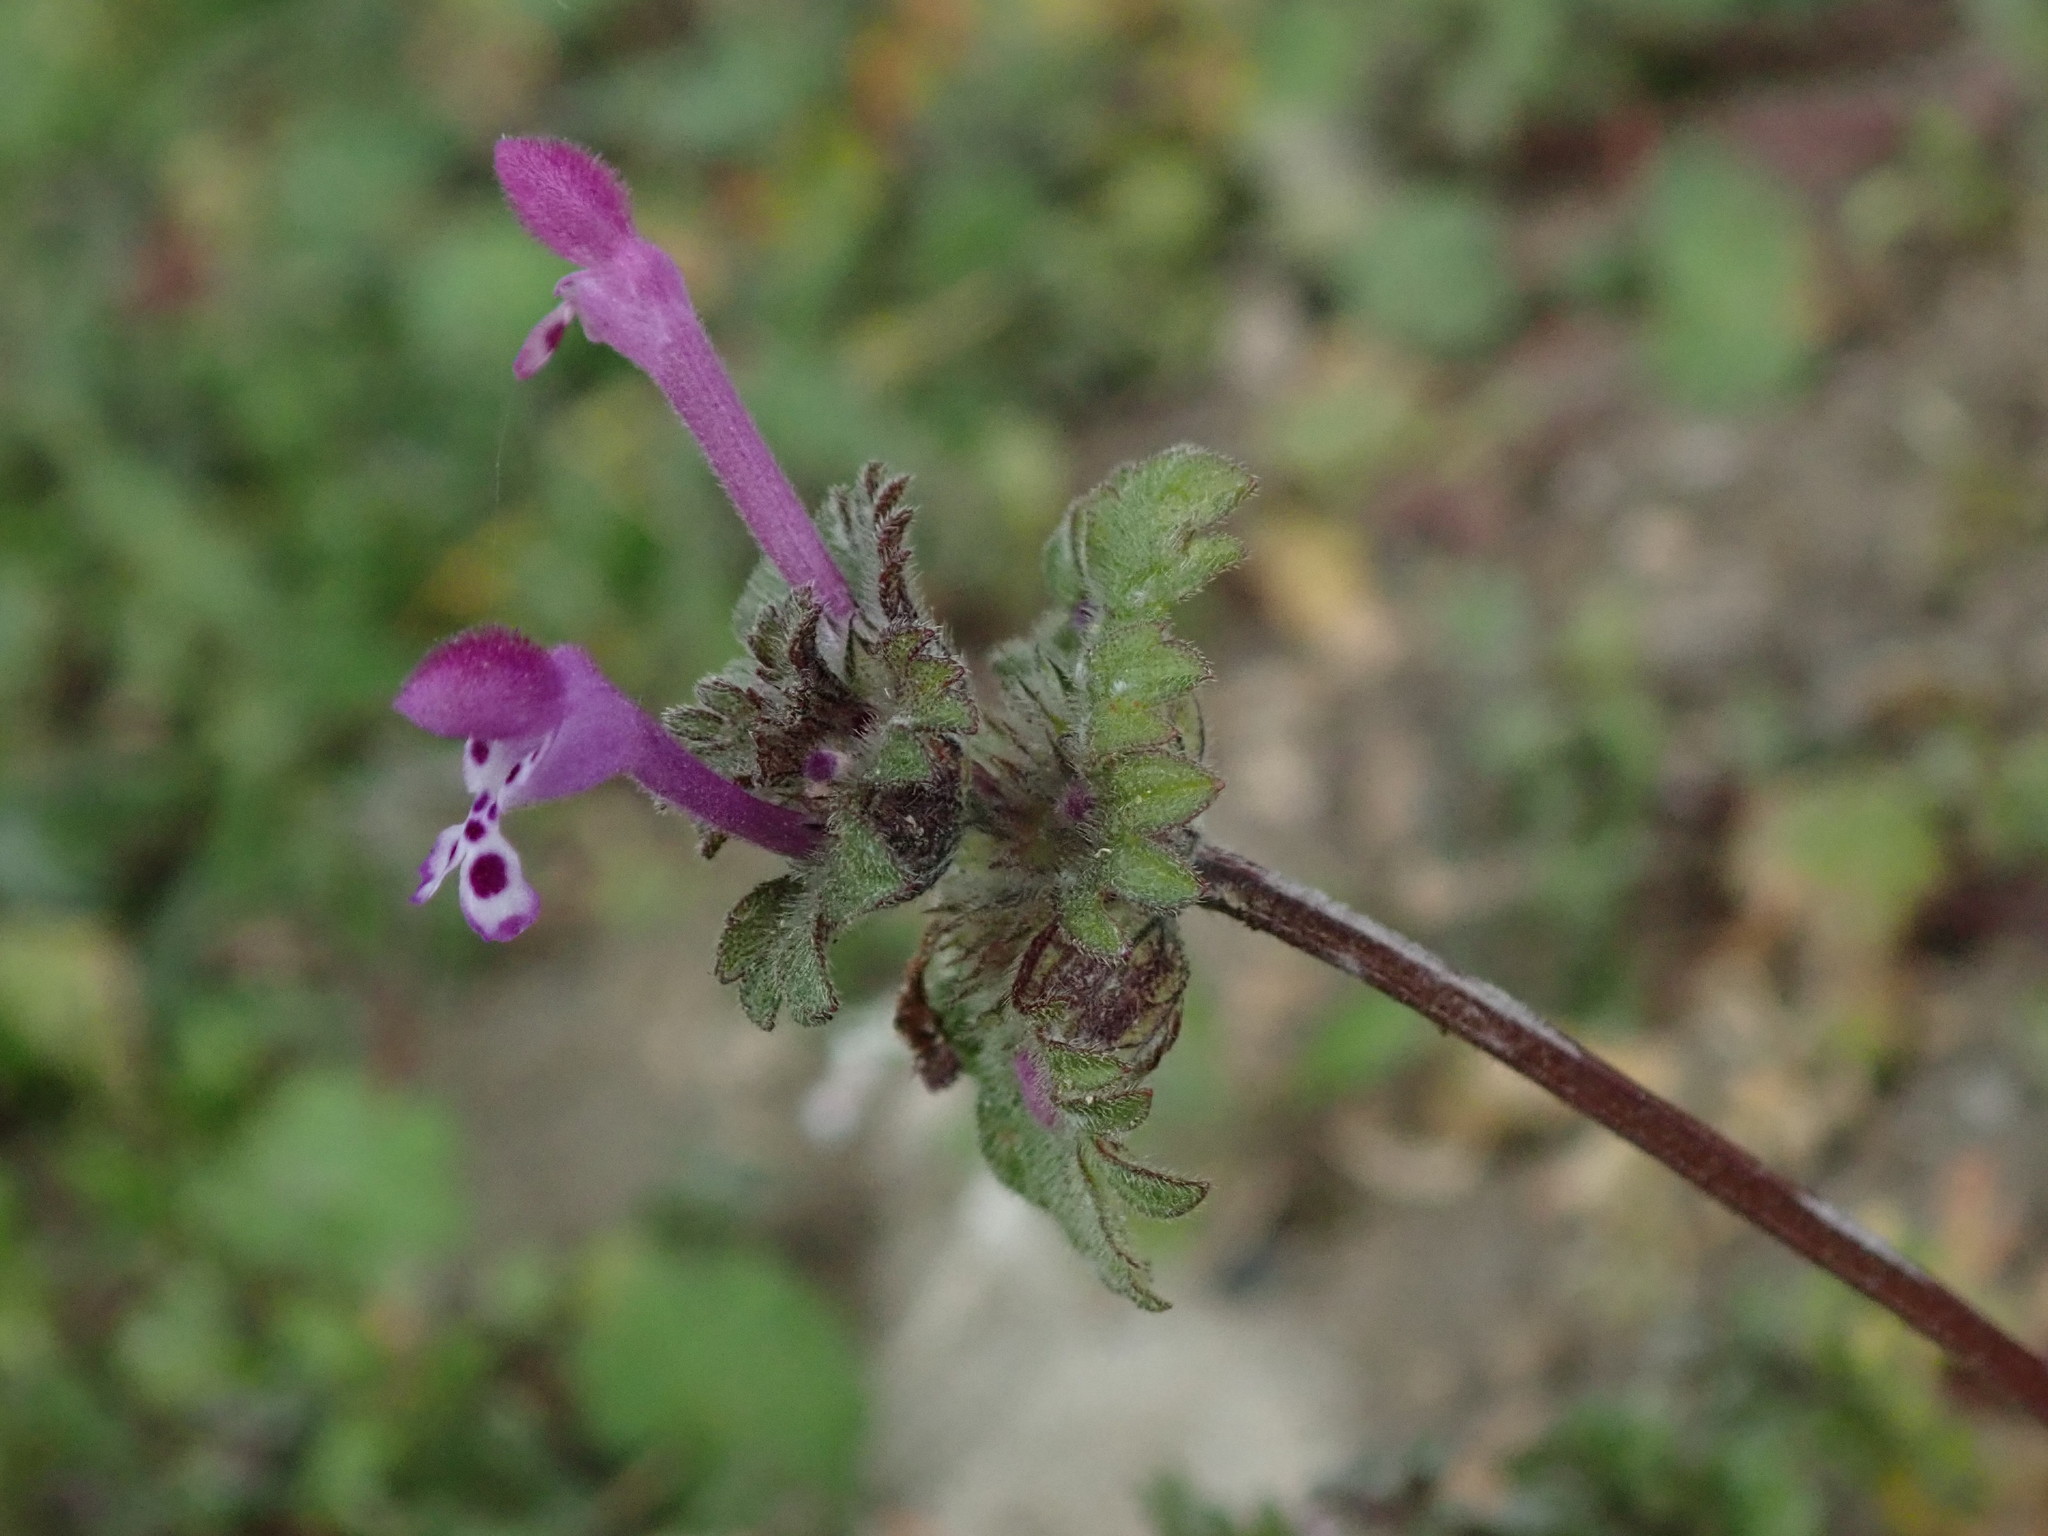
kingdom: Plantae
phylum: Tracheophyta
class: Magnoliopsida
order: Lamiales
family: Lamiaceae
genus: Lamium
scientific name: Lamium amplexicaule
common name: Henbit dead-nettle
